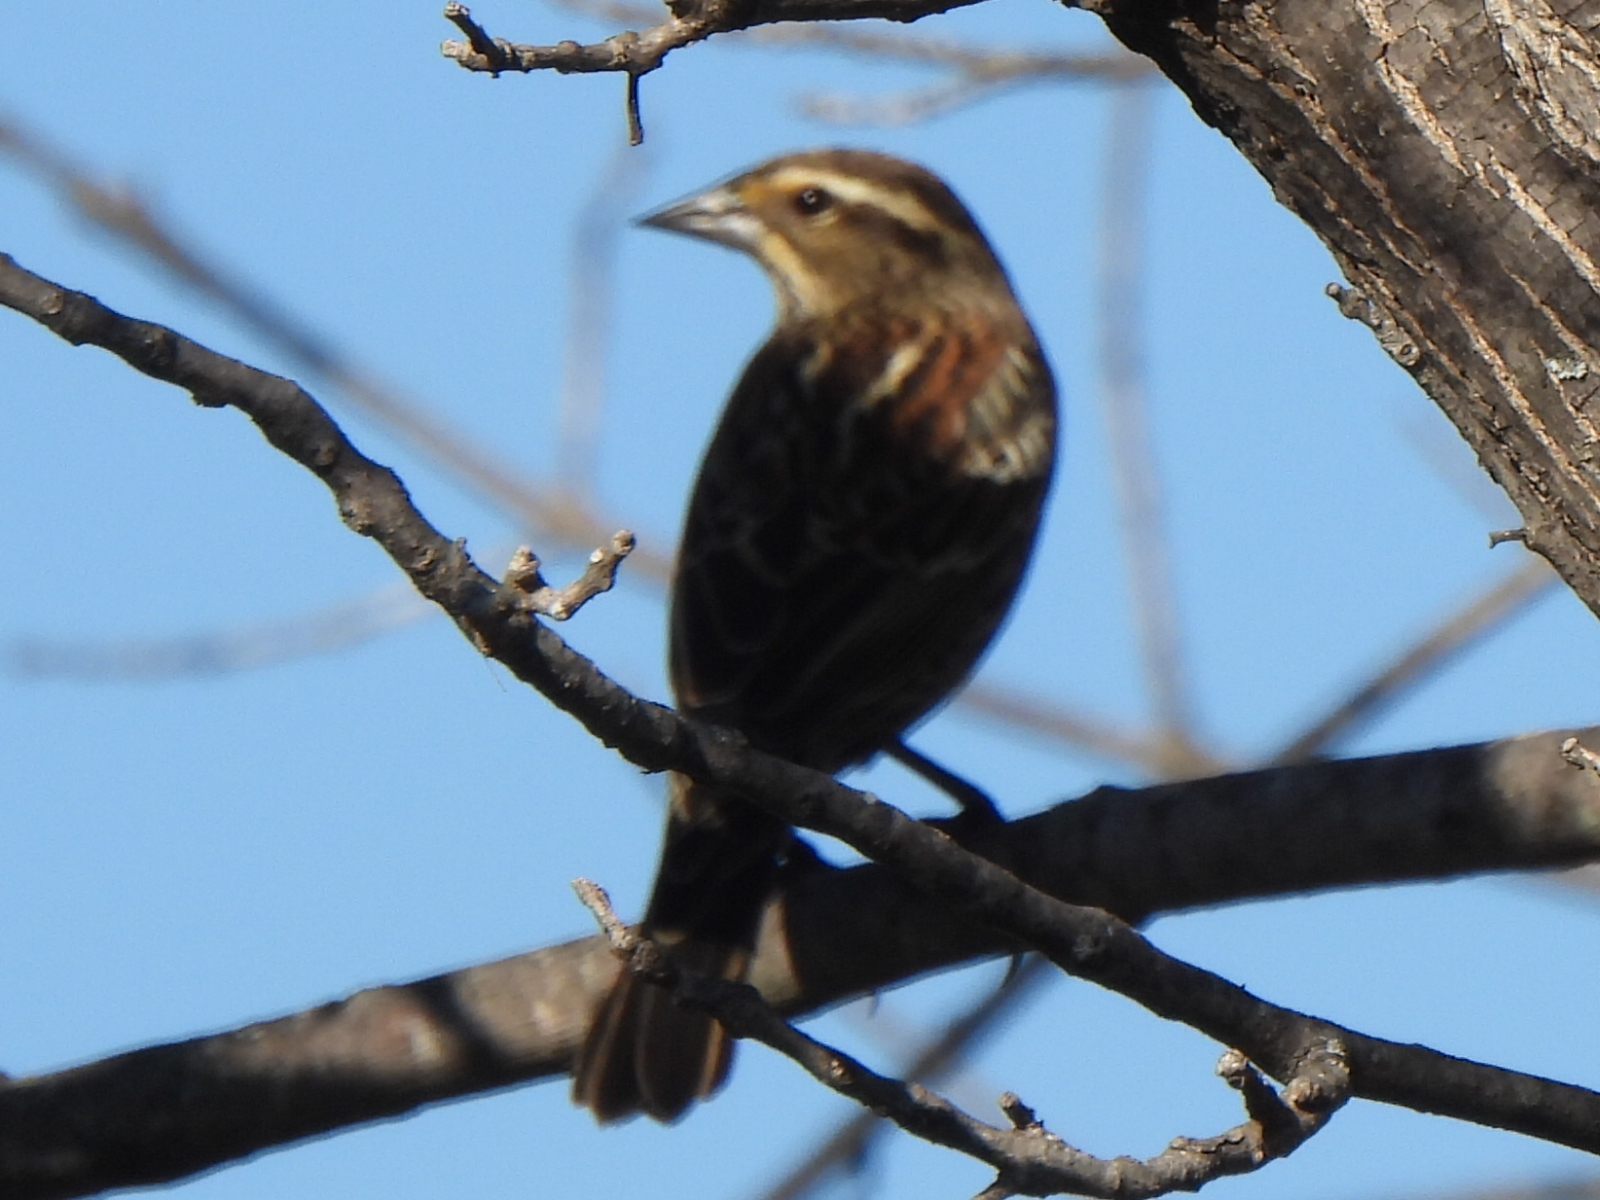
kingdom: Animalia
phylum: Chordata
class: Aves
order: Passeriformes
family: Icteridae
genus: Agelaius
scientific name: Agelaius phoeniceus
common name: Red-winged blackbird
